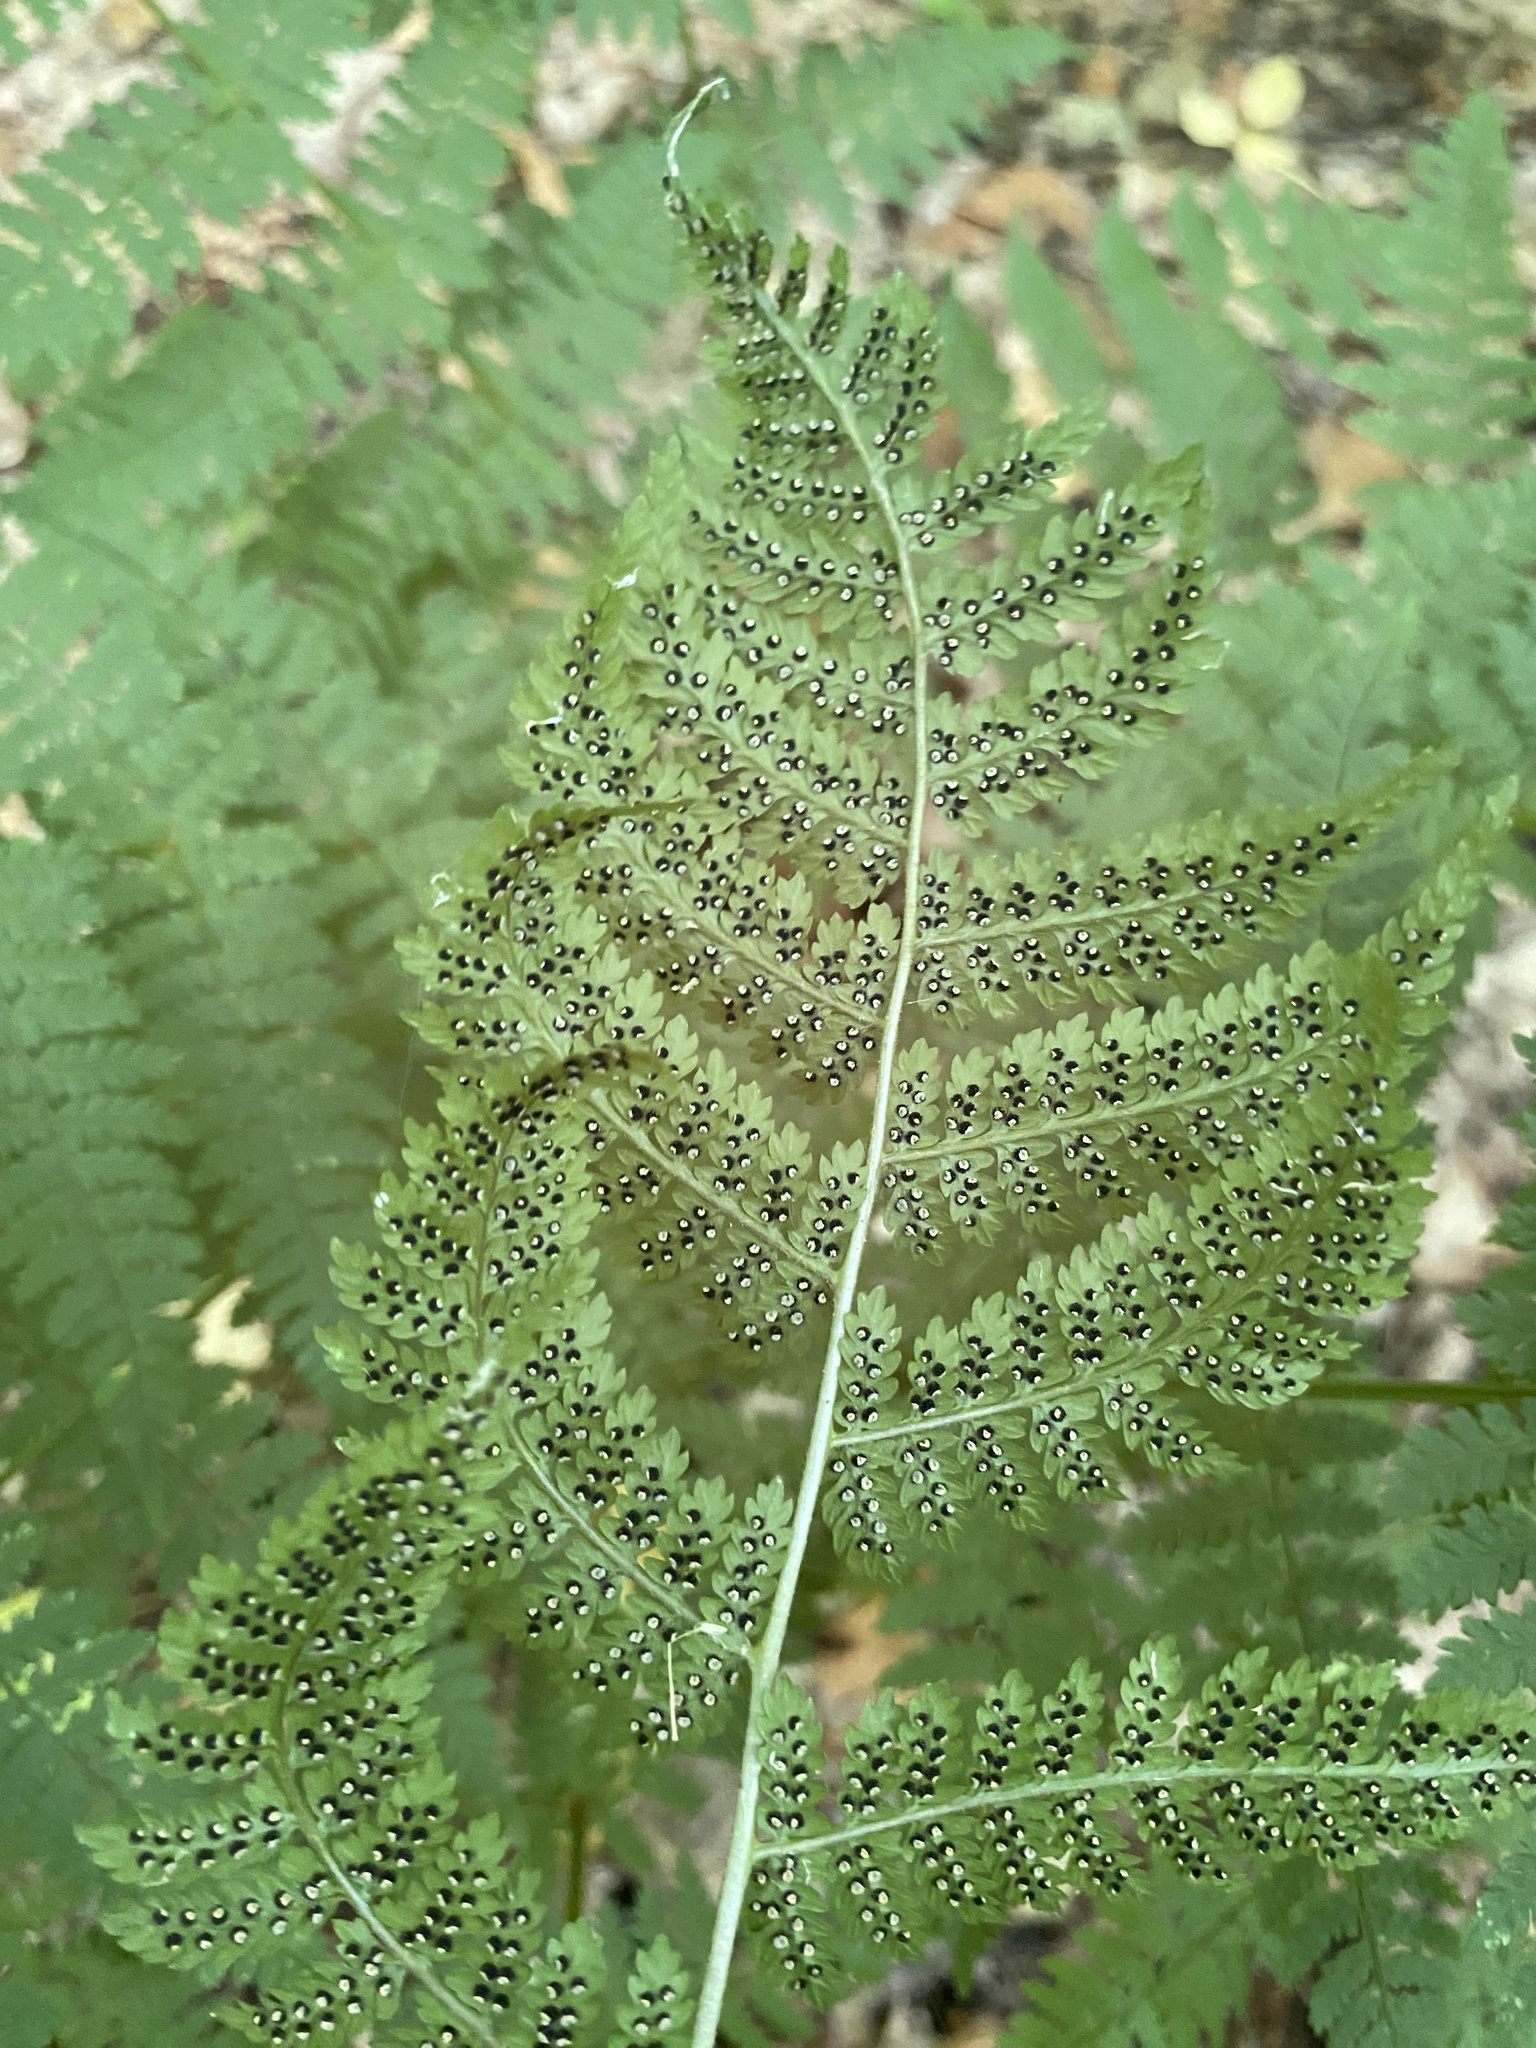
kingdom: Plantae
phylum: Tracheophyta
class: Polypodiopsida
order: Polypodiales
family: Dryopteridaceae
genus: Dryopteris
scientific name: Dryopteris intermedia
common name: Evergreen wood fern
